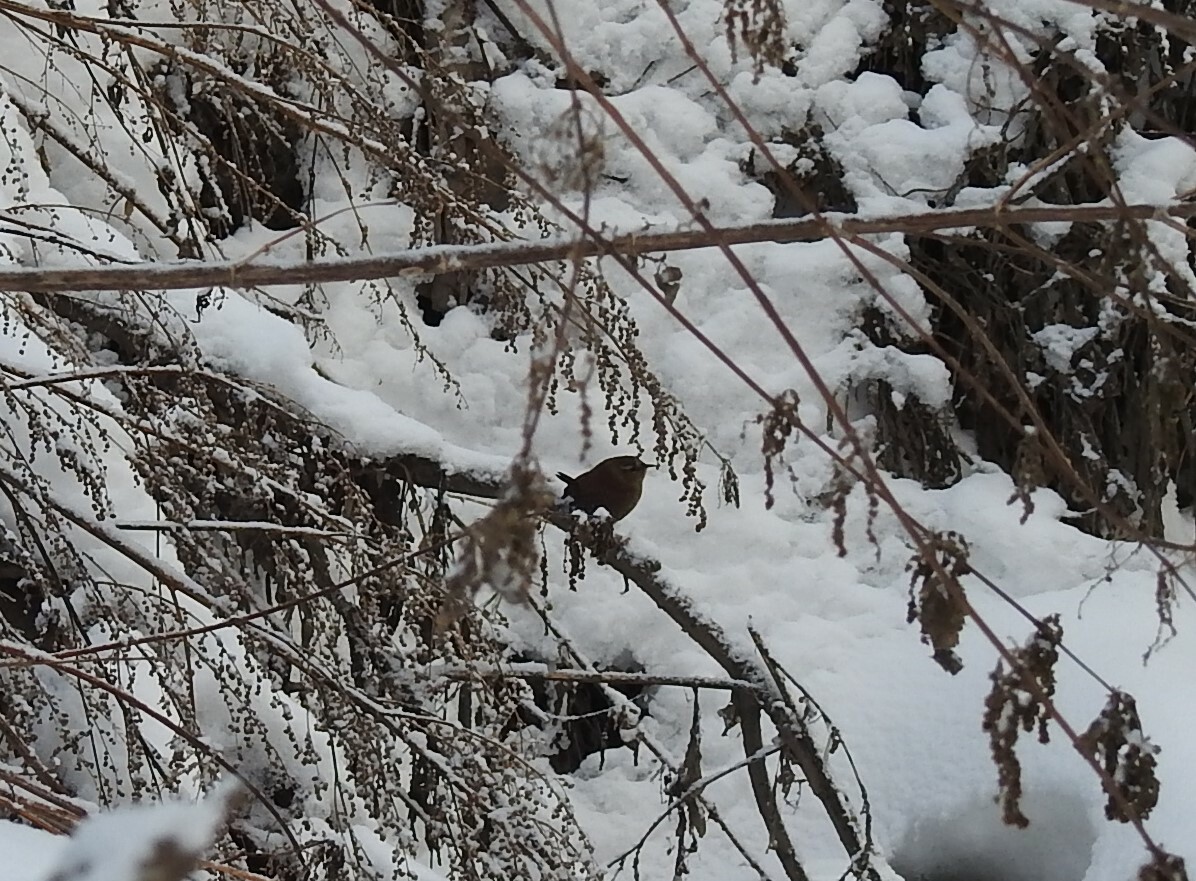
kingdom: Animalia
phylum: Chordata
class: Aves
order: Passeriformes
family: Troglodytidae
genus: Troglodytes
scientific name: Troglodytes troglodytes
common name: Eurasian wren
